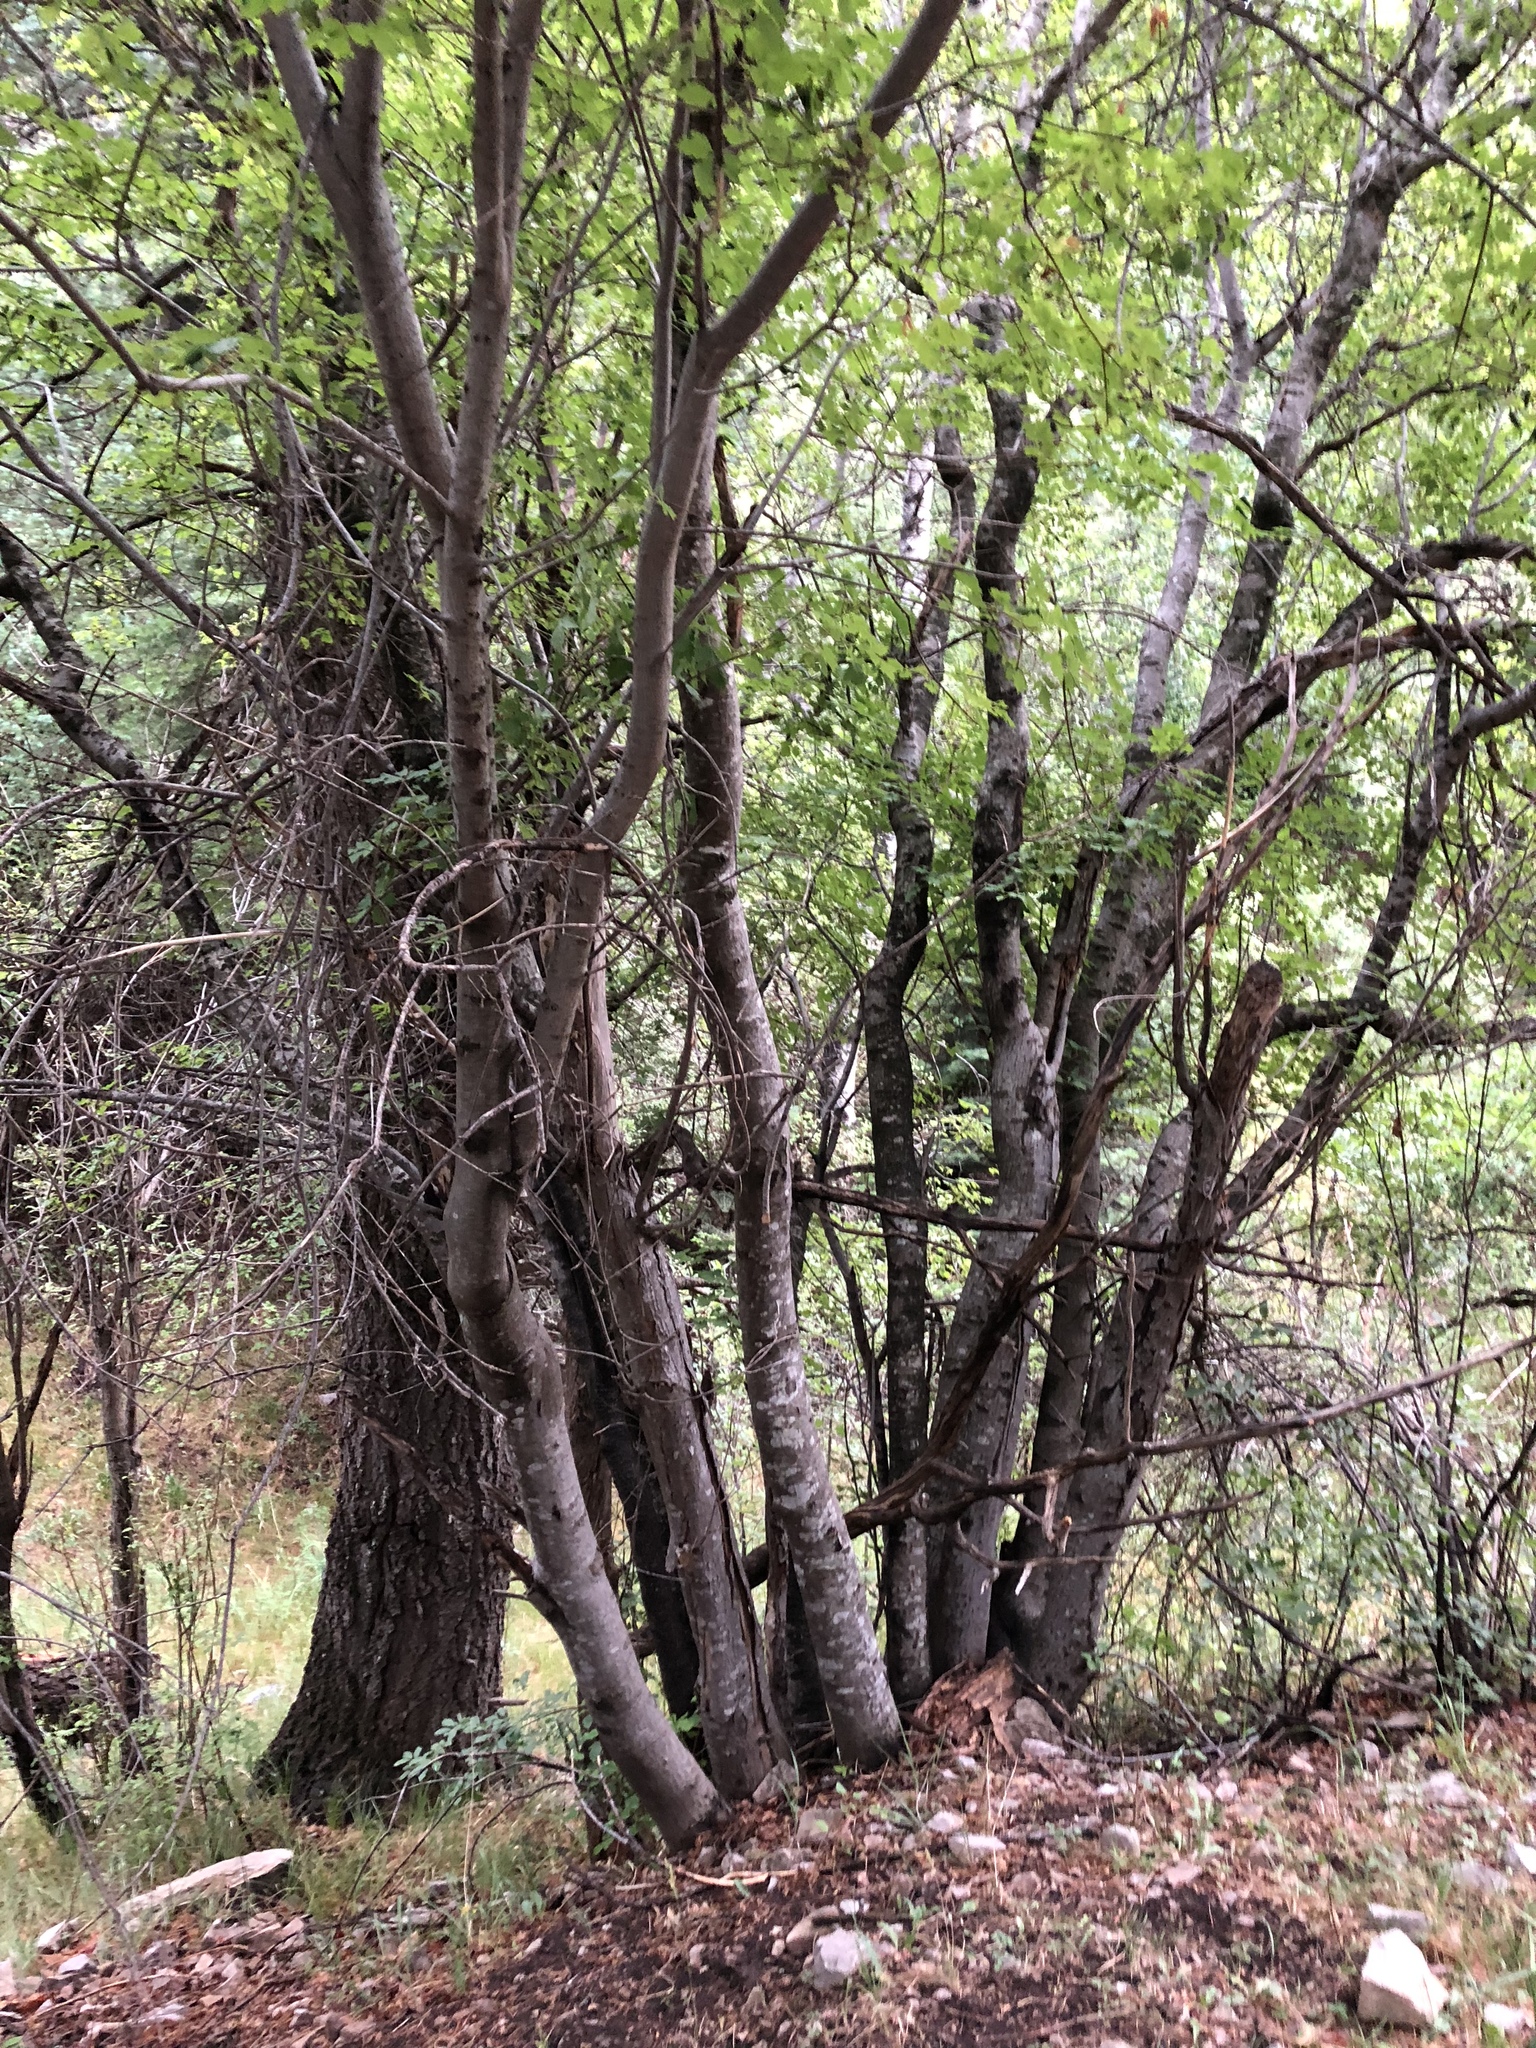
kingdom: Plantae
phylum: Tracheophyta
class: Magnoliopsida
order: Sapindales
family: Sapindaceae
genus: Acer
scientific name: Acer glabrum
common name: Rocky mountain maple
